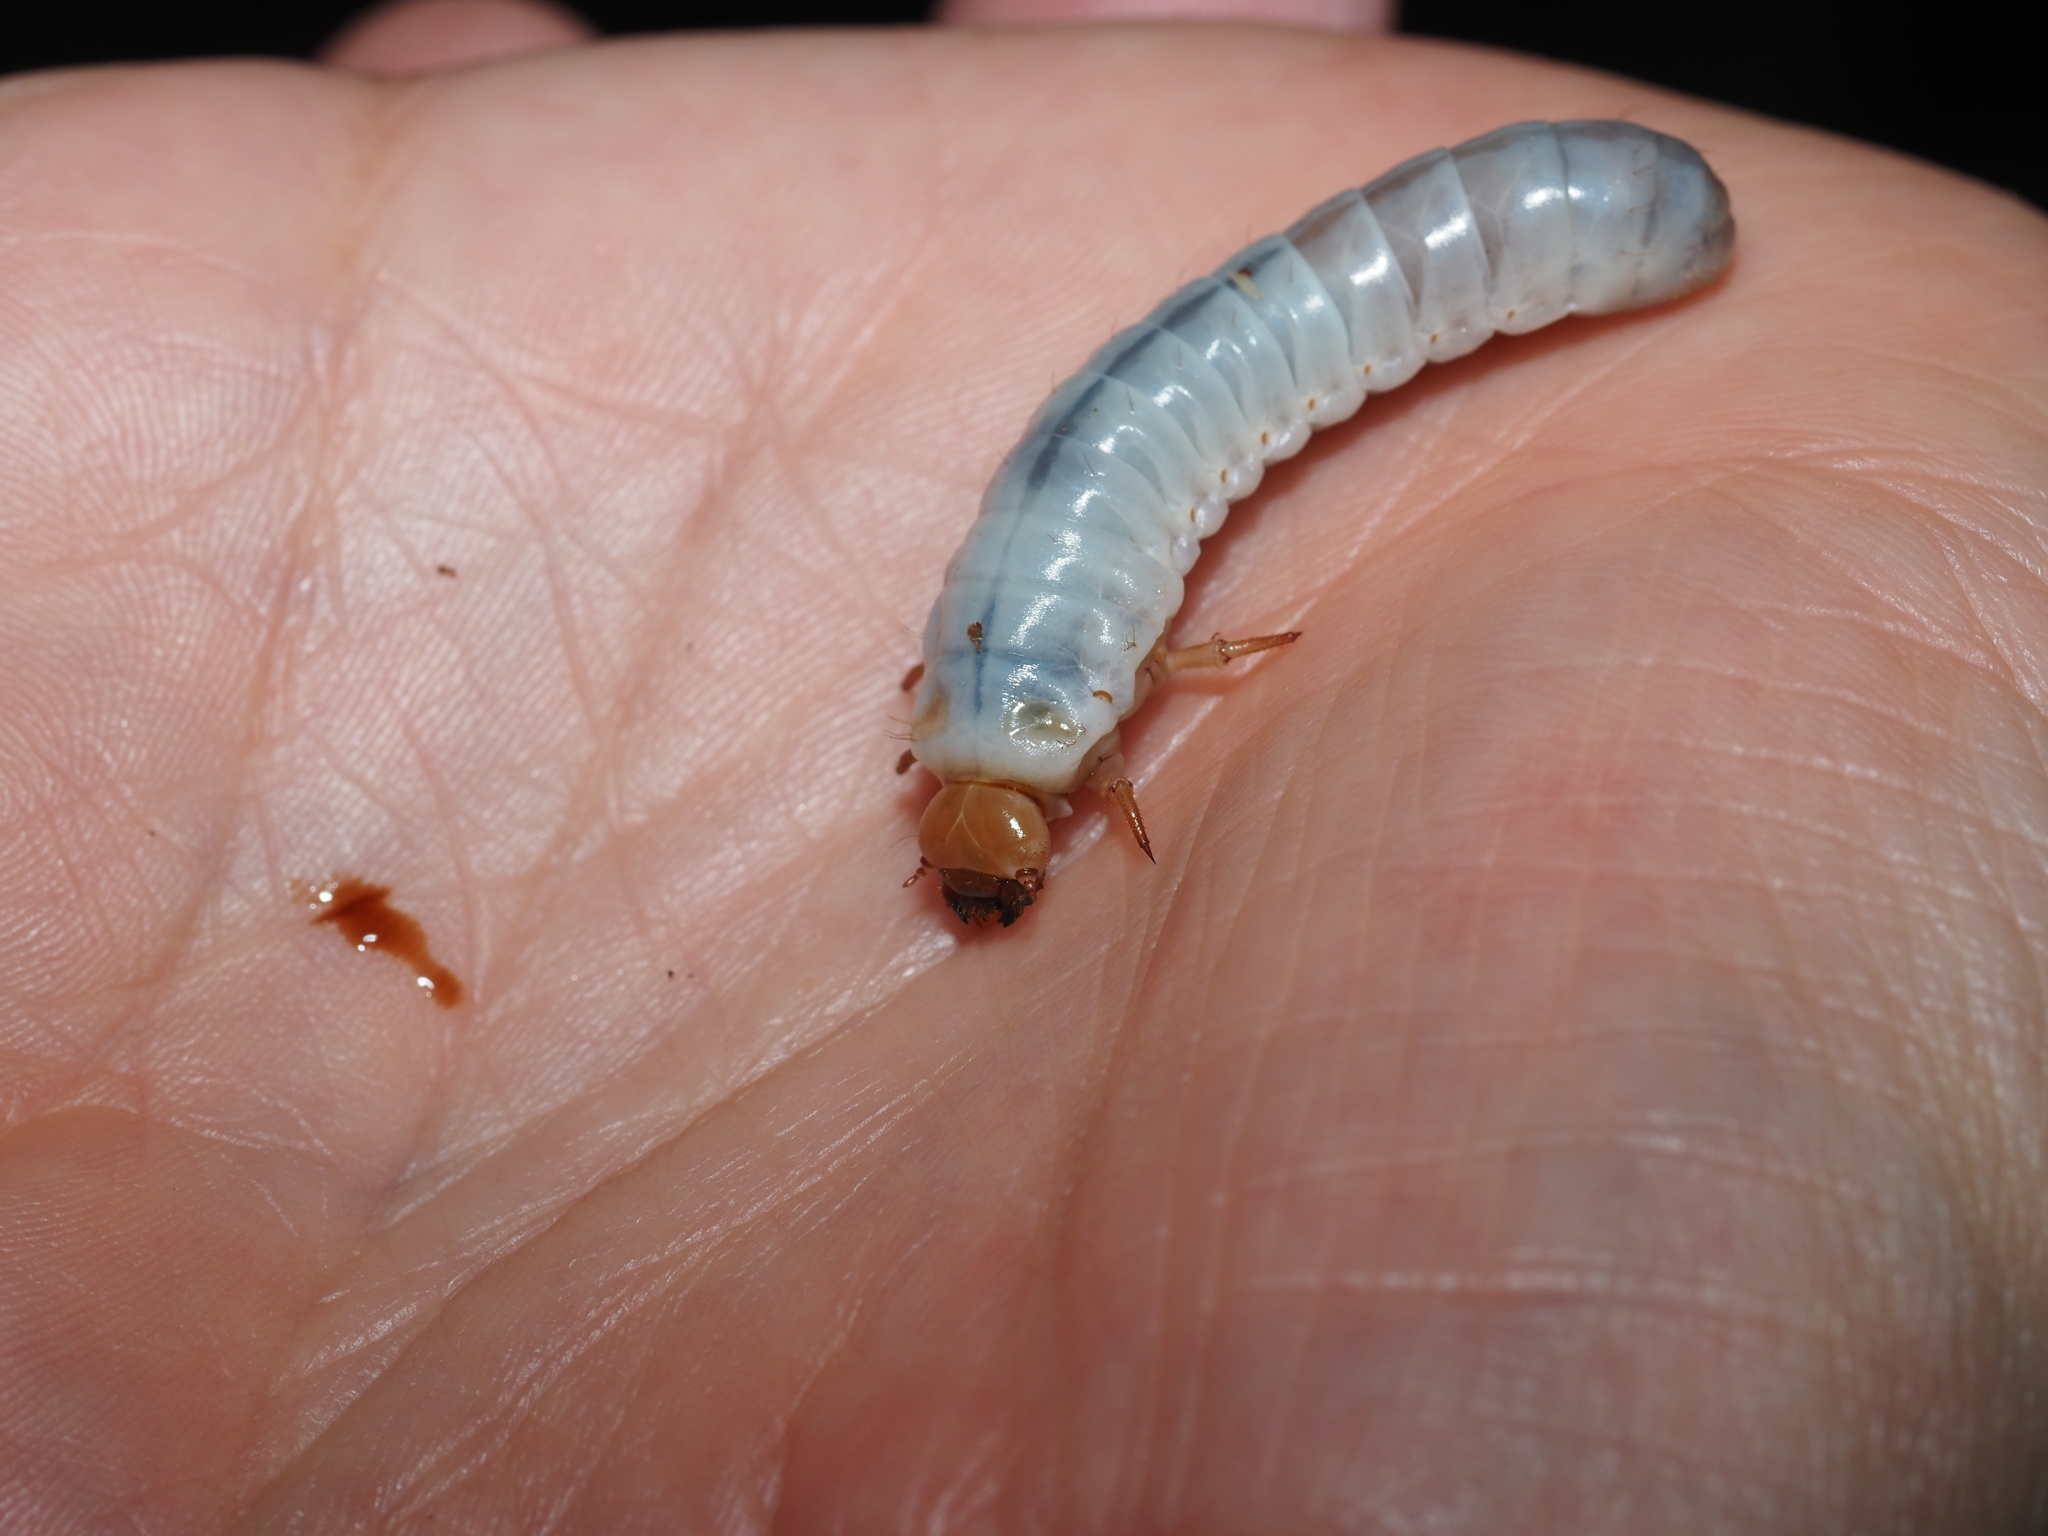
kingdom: Animalia
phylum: Arthropoda
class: Insecta
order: Coleoptera
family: Passalidae
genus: Odontotaenius
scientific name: Odontotaenius disjunctus
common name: Patent leather beetle
